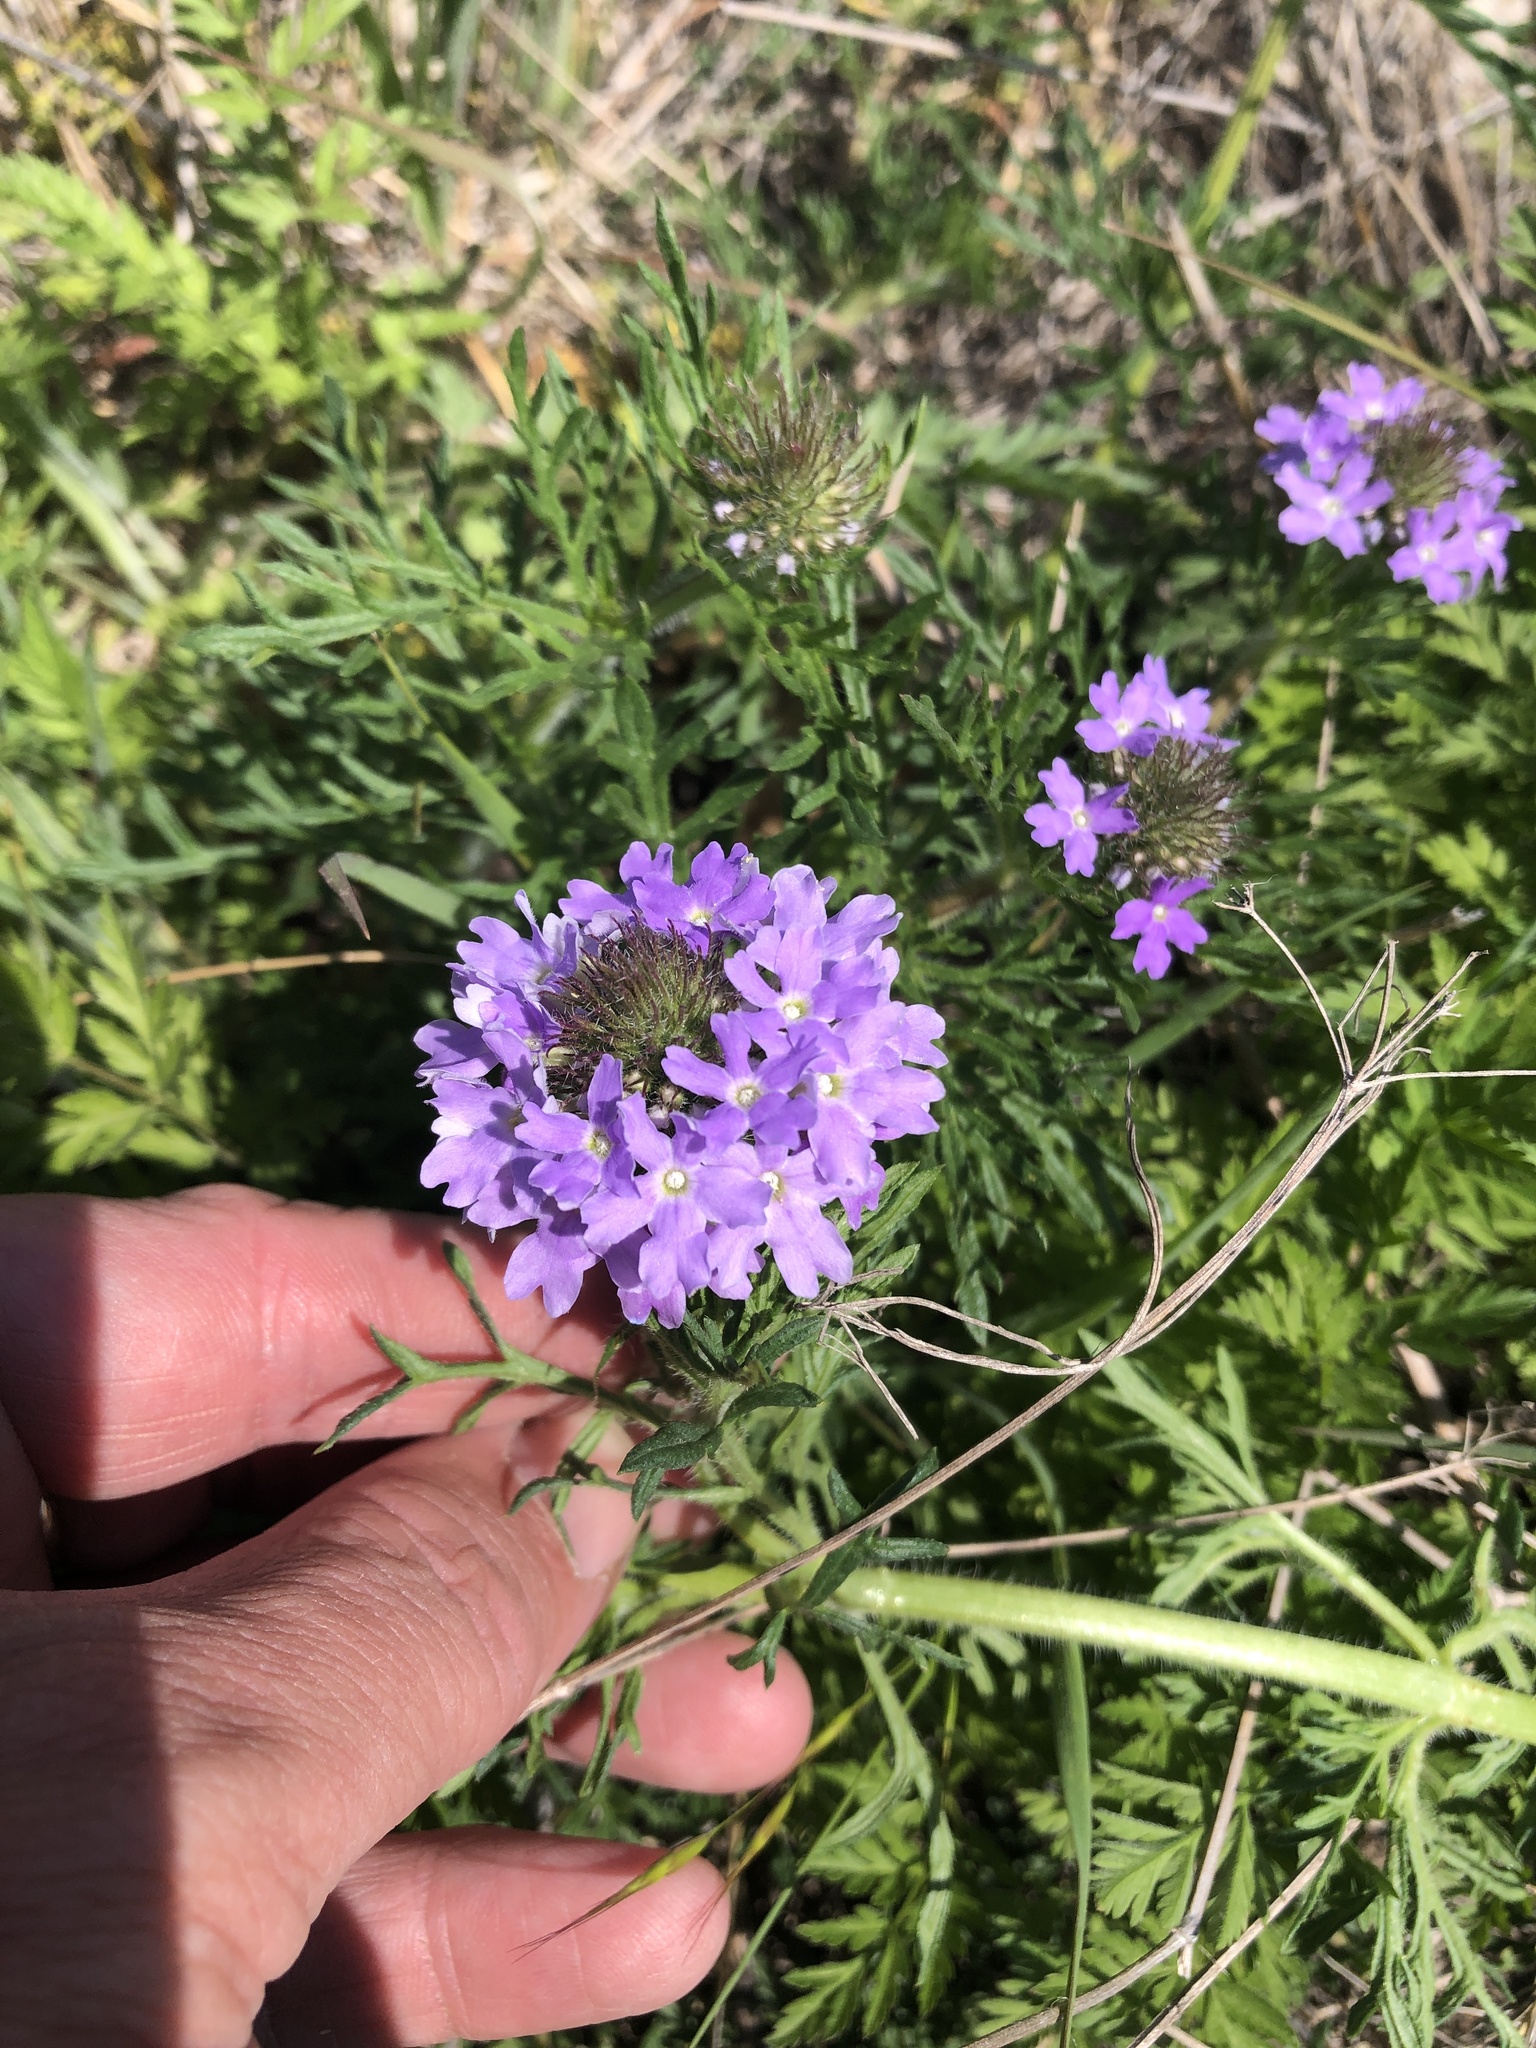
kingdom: Plantae
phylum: Tracheophyta
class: Magnoliopsida
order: Lamiales
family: Verbenaceae
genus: Verbena
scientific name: Verbena bipinnatifida
